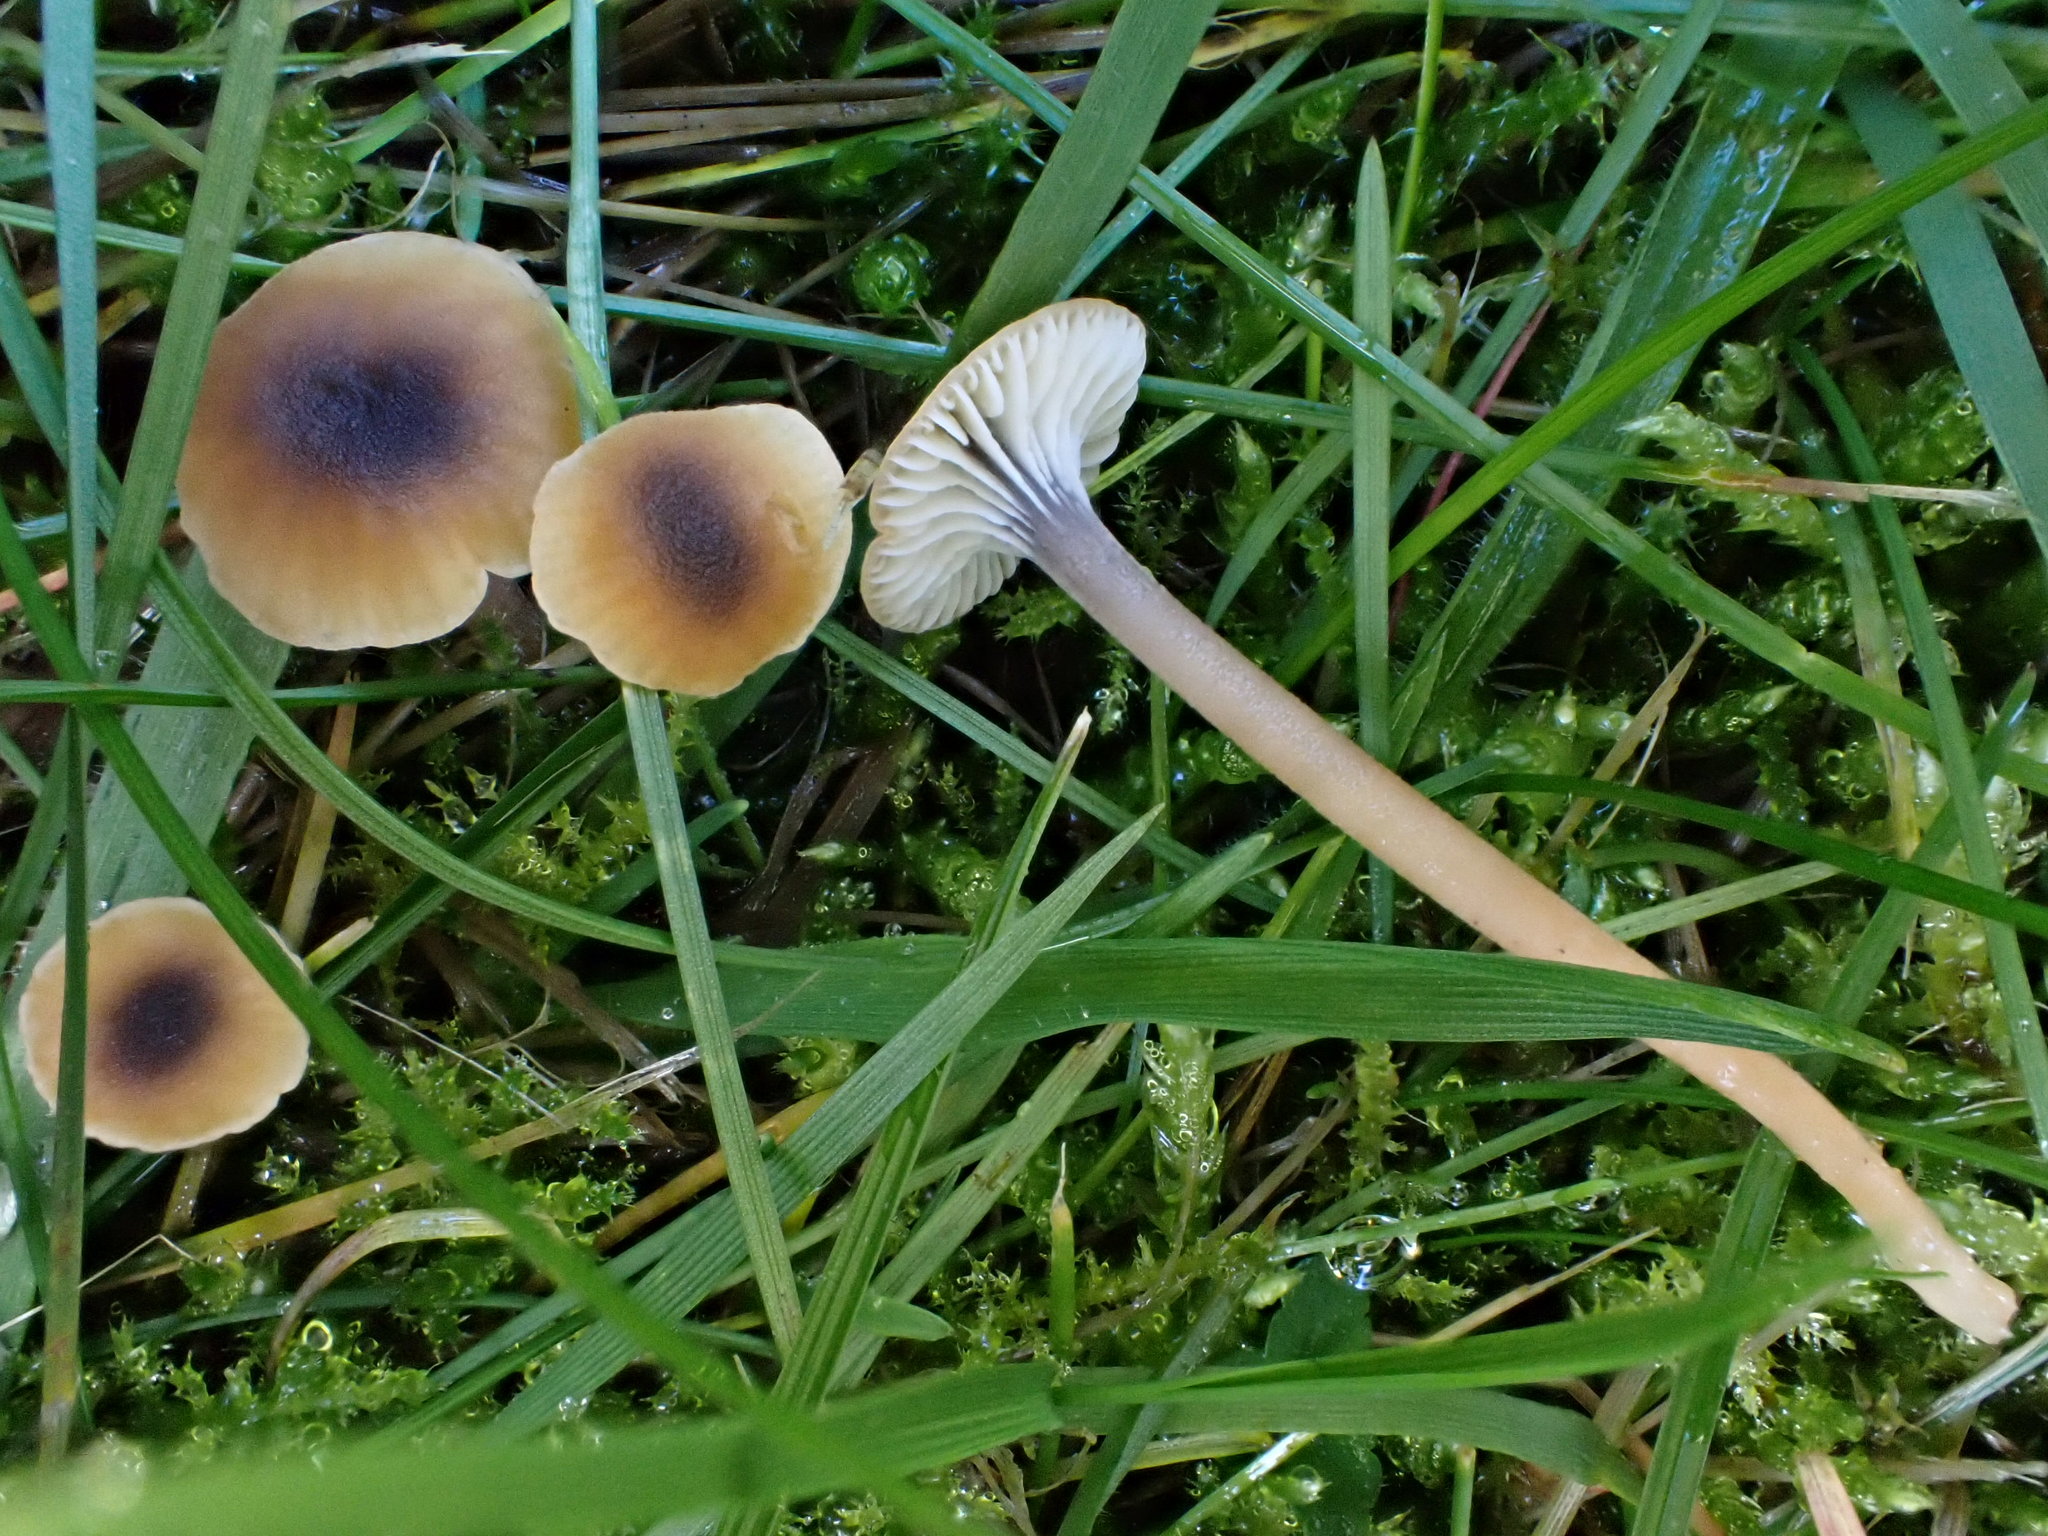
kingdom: Fungi
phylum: Basidiomycota
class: Agaricomycetes
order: Hymenochaetales
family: Rickenellaceae
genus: Rickenella
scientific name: Rickenella swartzii
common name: Collared mosscap
